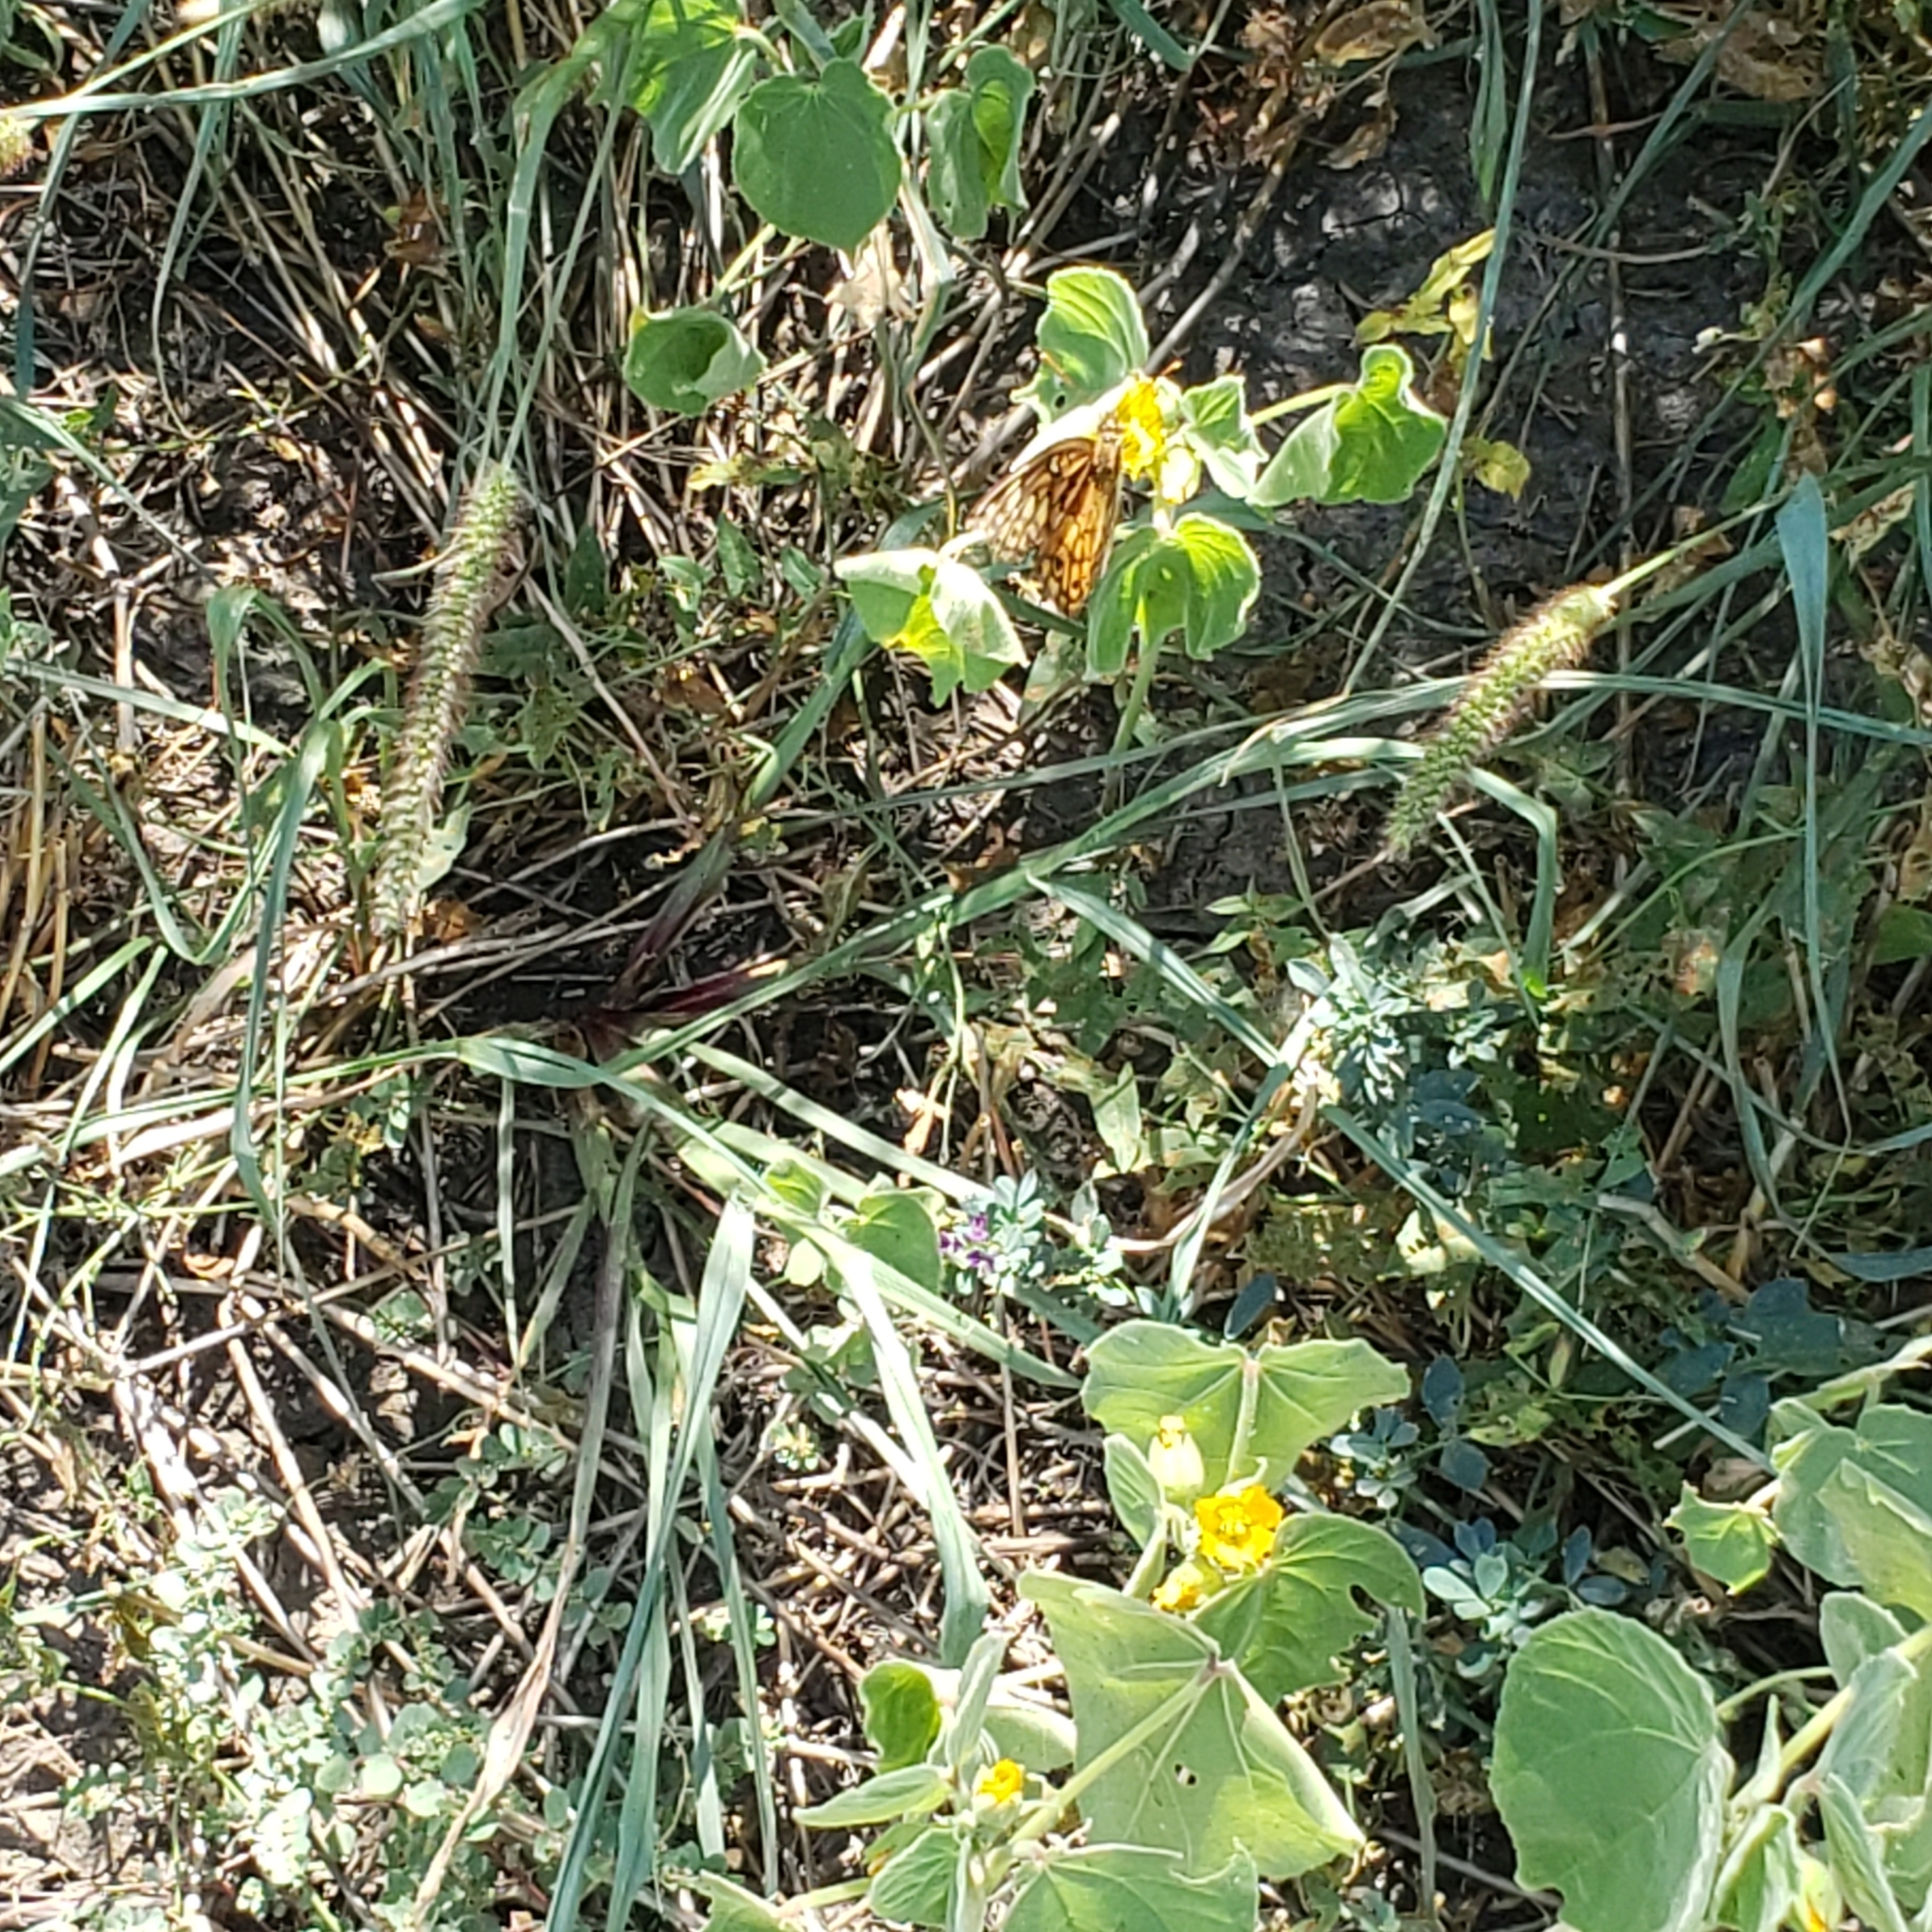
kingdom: Animalia
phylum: Arthropoda
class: Insecta
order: Lepidoptera
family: Nymphalidae
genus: Euptoieta
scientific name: Euptoieta claudia
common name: Variegated fritillary
